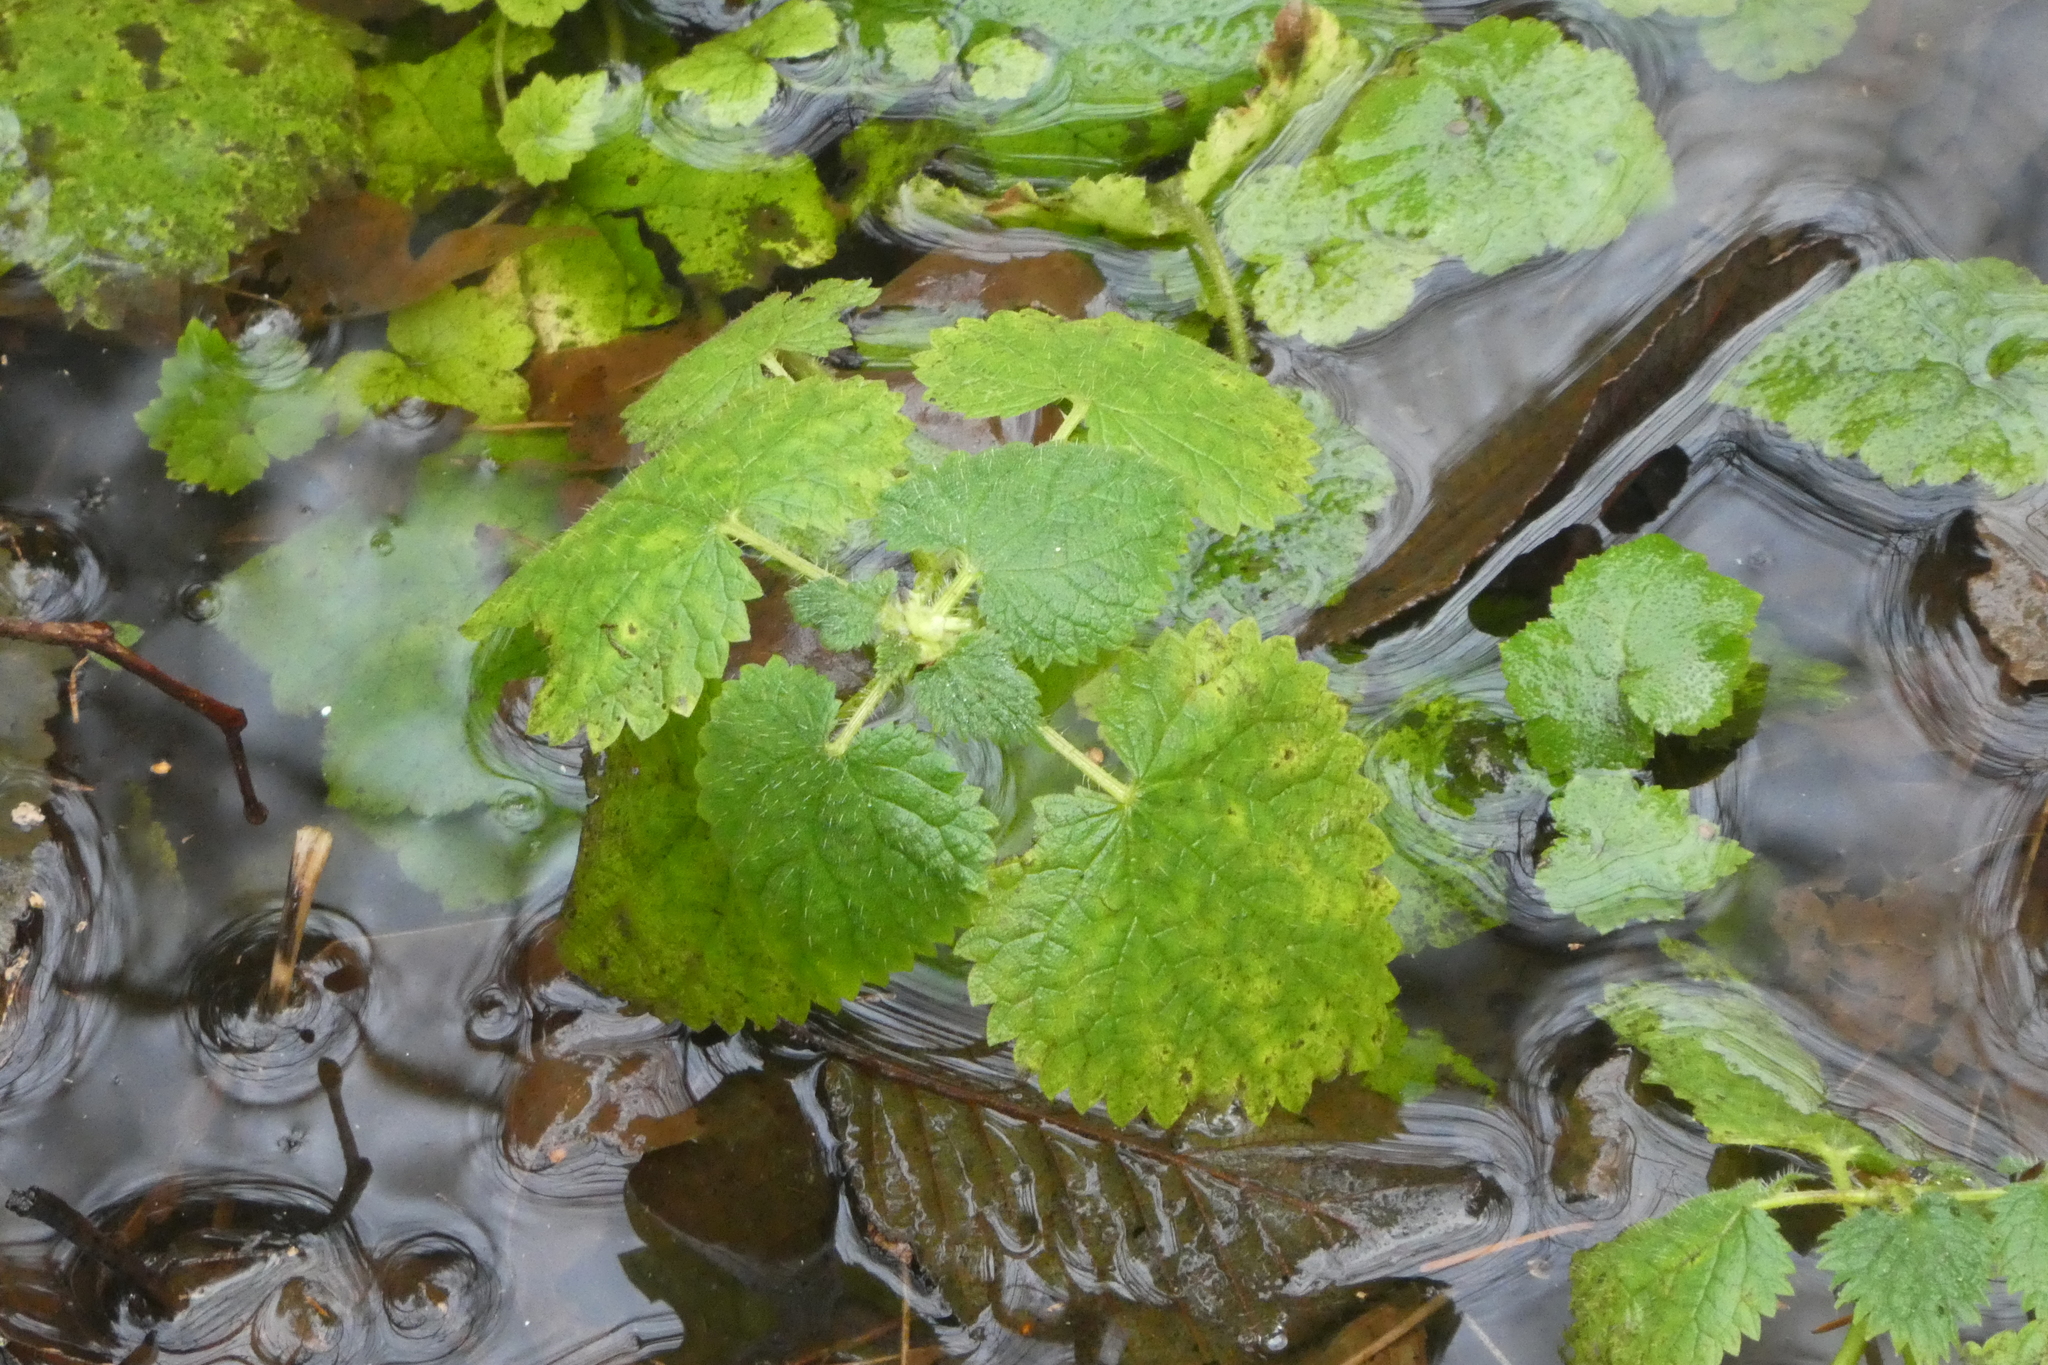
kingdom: Plantae
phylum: Tracheophyta
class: Magnoliopsida
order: Rosales
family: Urticaceae
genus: Urtica
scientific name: Urtica gracilis
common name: Slender stinging nettle
